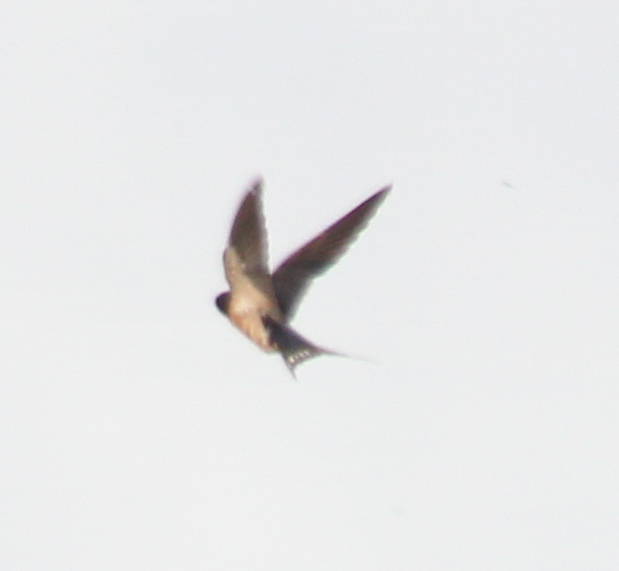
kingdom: Animalia
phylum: Chordata
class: Aves
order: Passeriformes
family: Hirundinidae
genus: Hirundo
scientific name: Hirundo rustica
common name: Barn swallow
